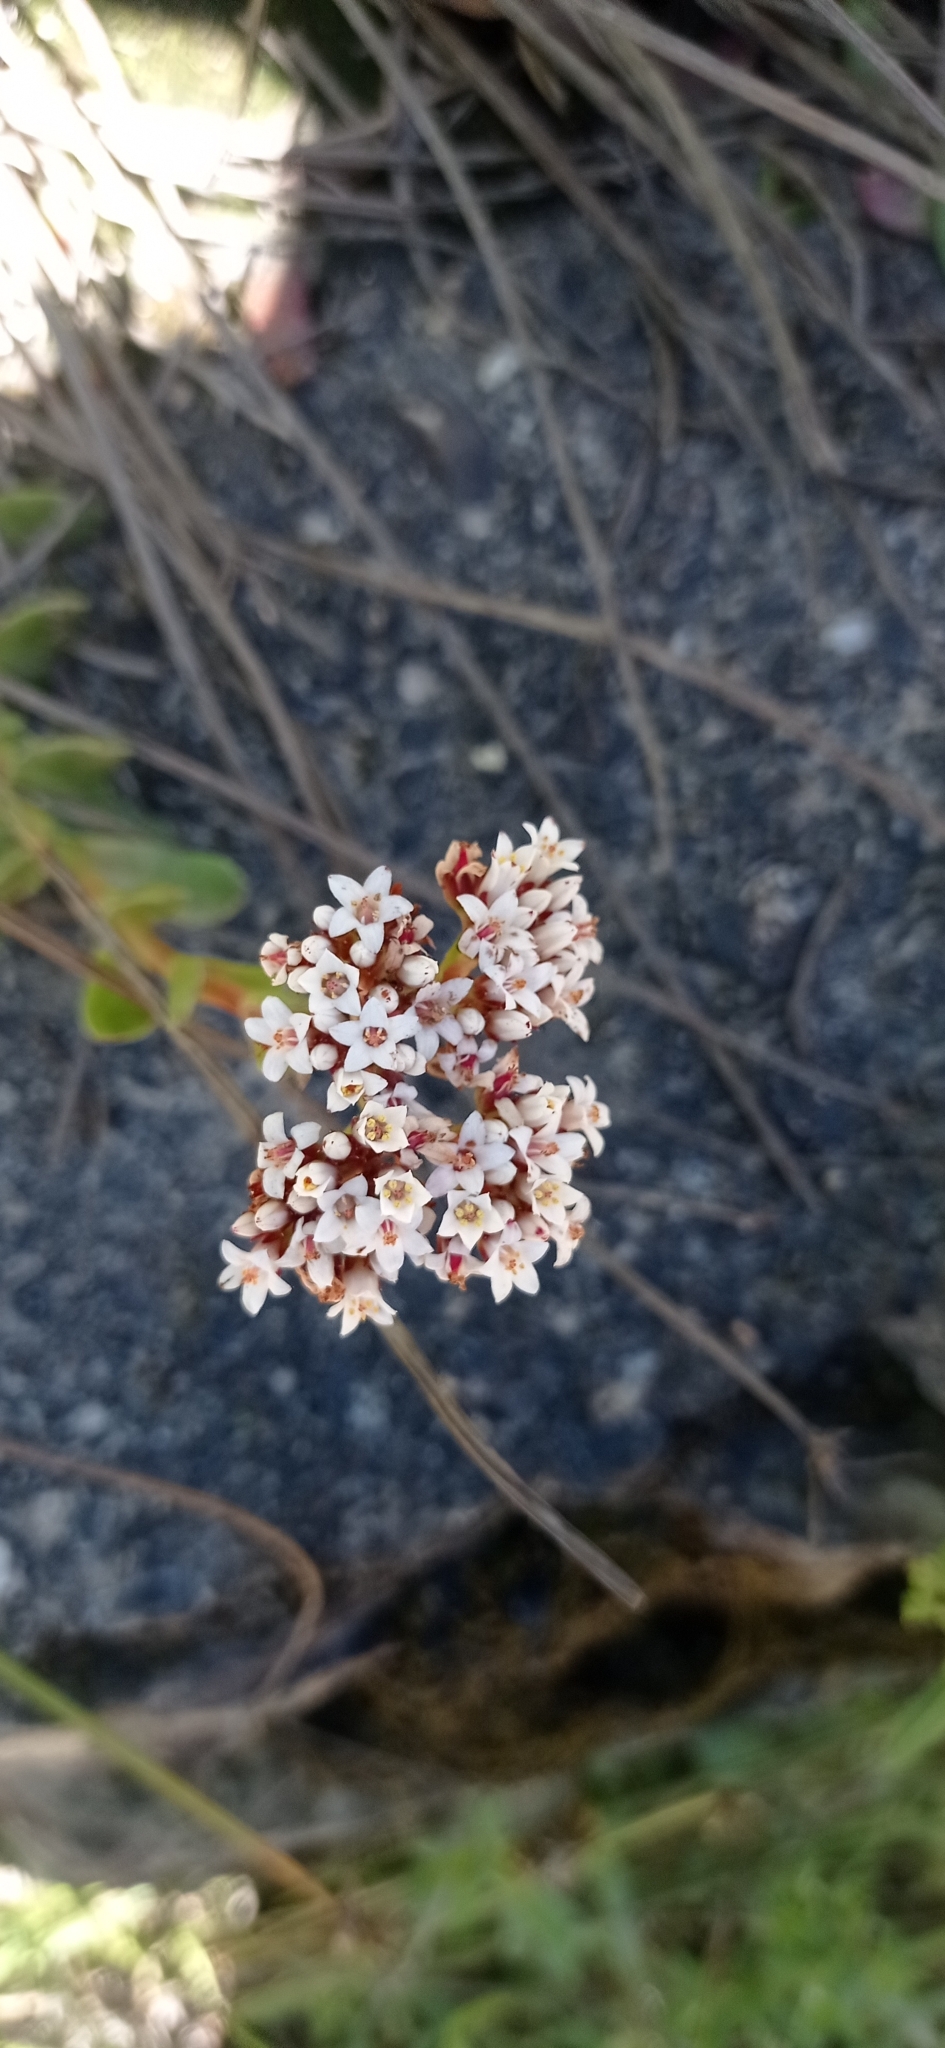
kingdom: Plantae
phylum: Tracheophyta
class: Magnoliopsida
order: Saxifragales
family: Crassulaceae
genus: Crassula
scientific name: Crassula rubricaulis
